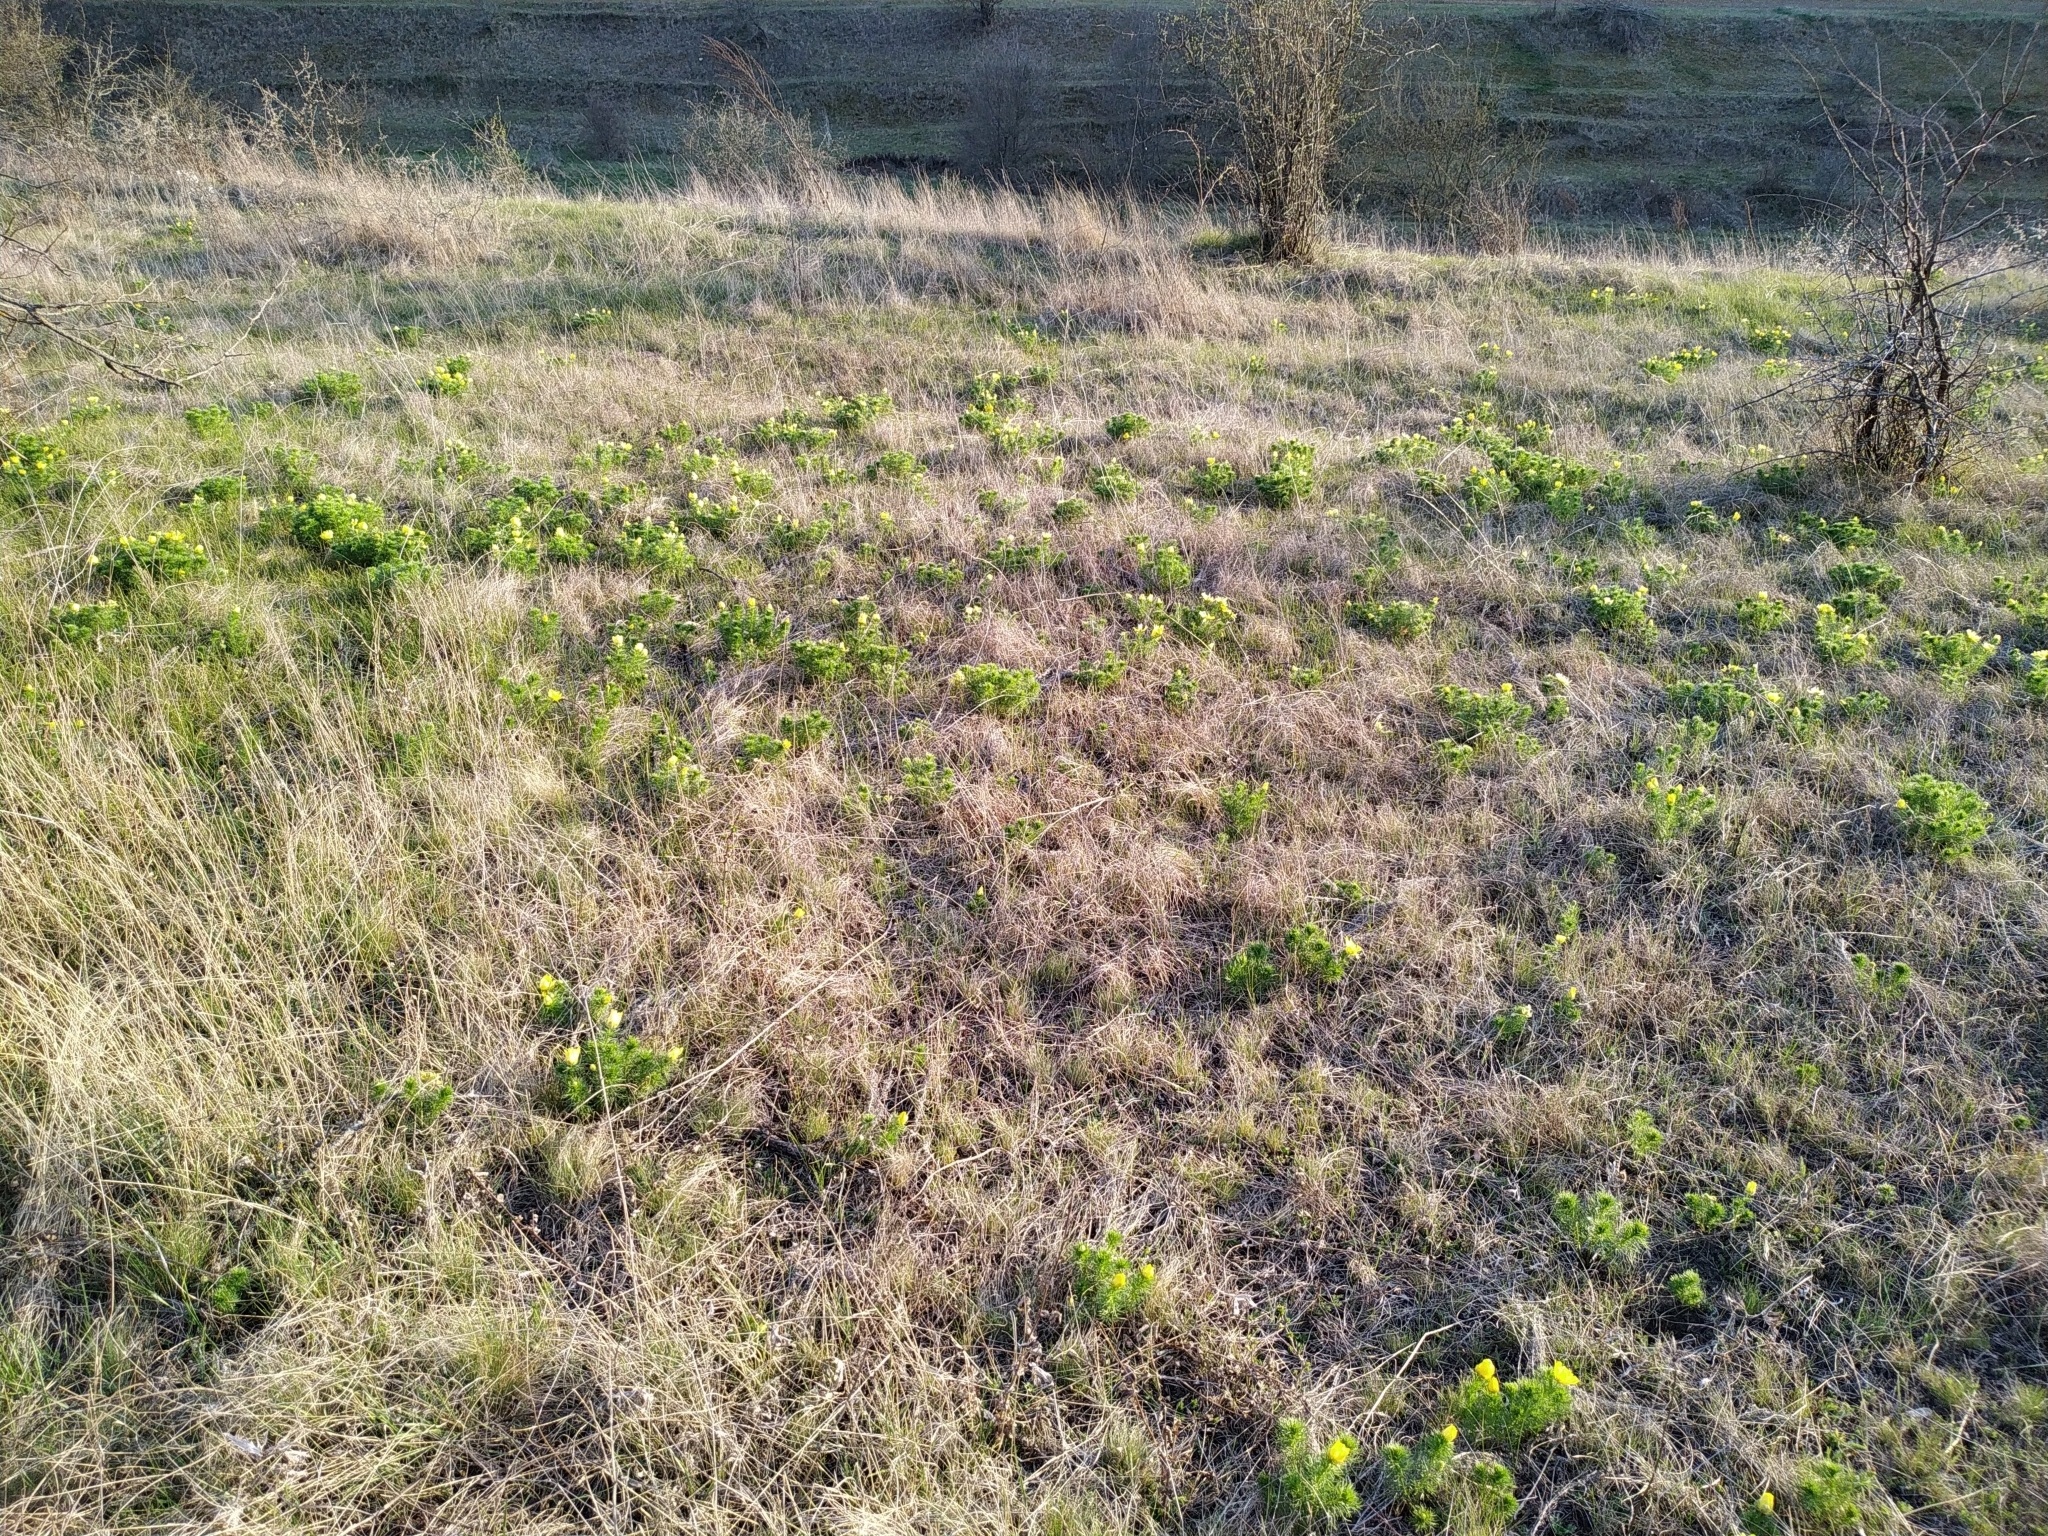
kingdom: Plantae
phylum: Tracheophyta
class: Magnoliopsida
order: Ranunculales
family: Ranunculaceae
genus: Adonis
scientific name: Adonis vernalis
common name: Yellow pheasants-eye
